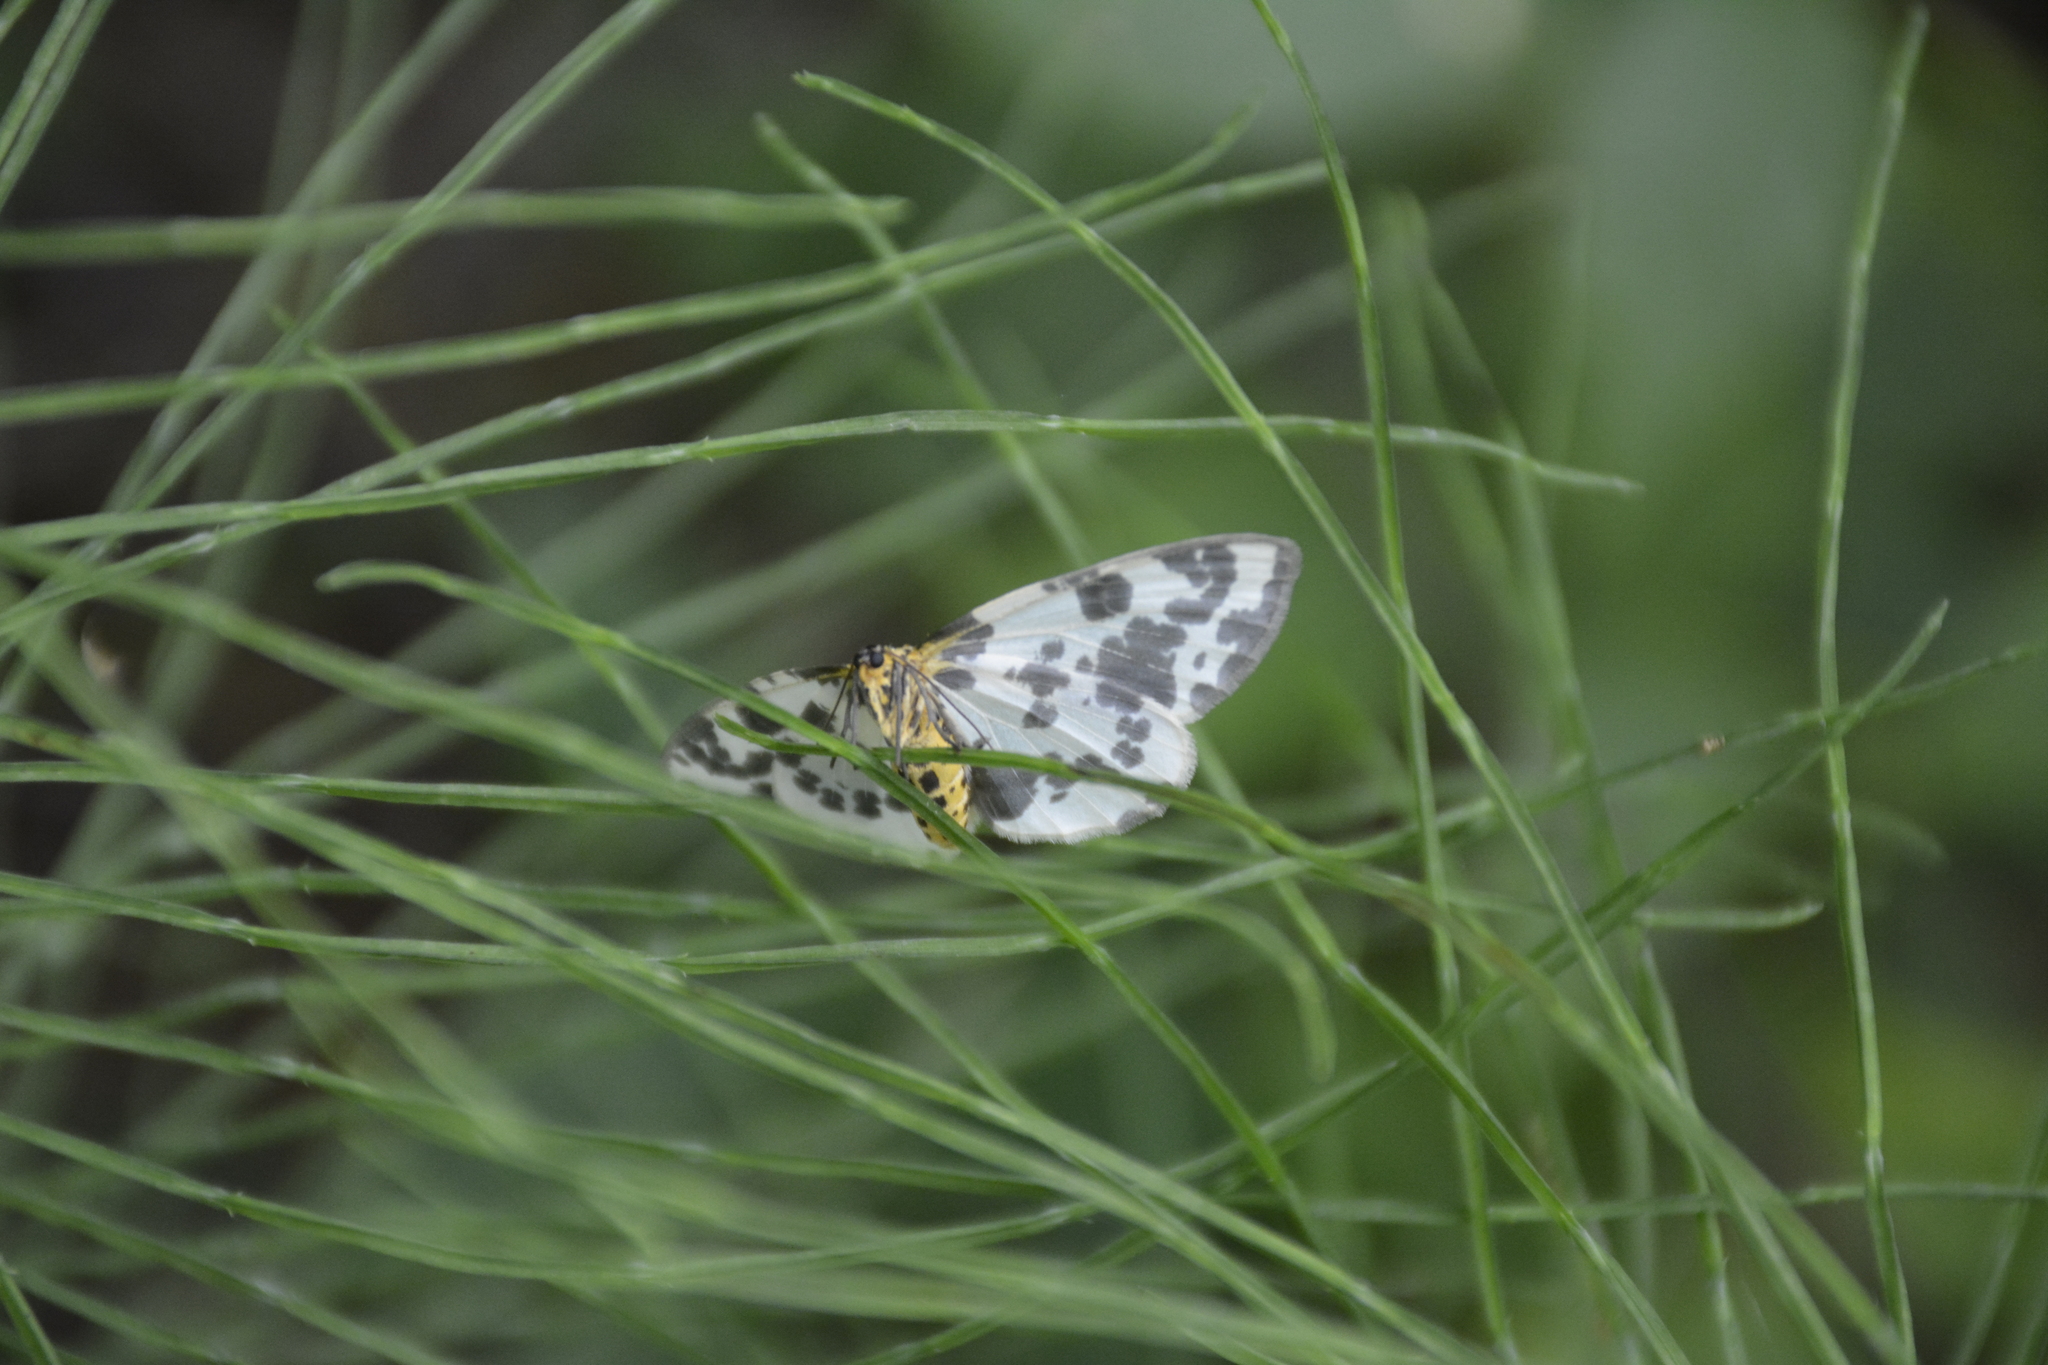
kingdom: Animalia
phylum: Arthropoda
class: Insecta
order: Lepidoptera
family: Geometridae
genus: Abraxas
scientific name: Abraxas sylvata
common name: Clouded magpie
